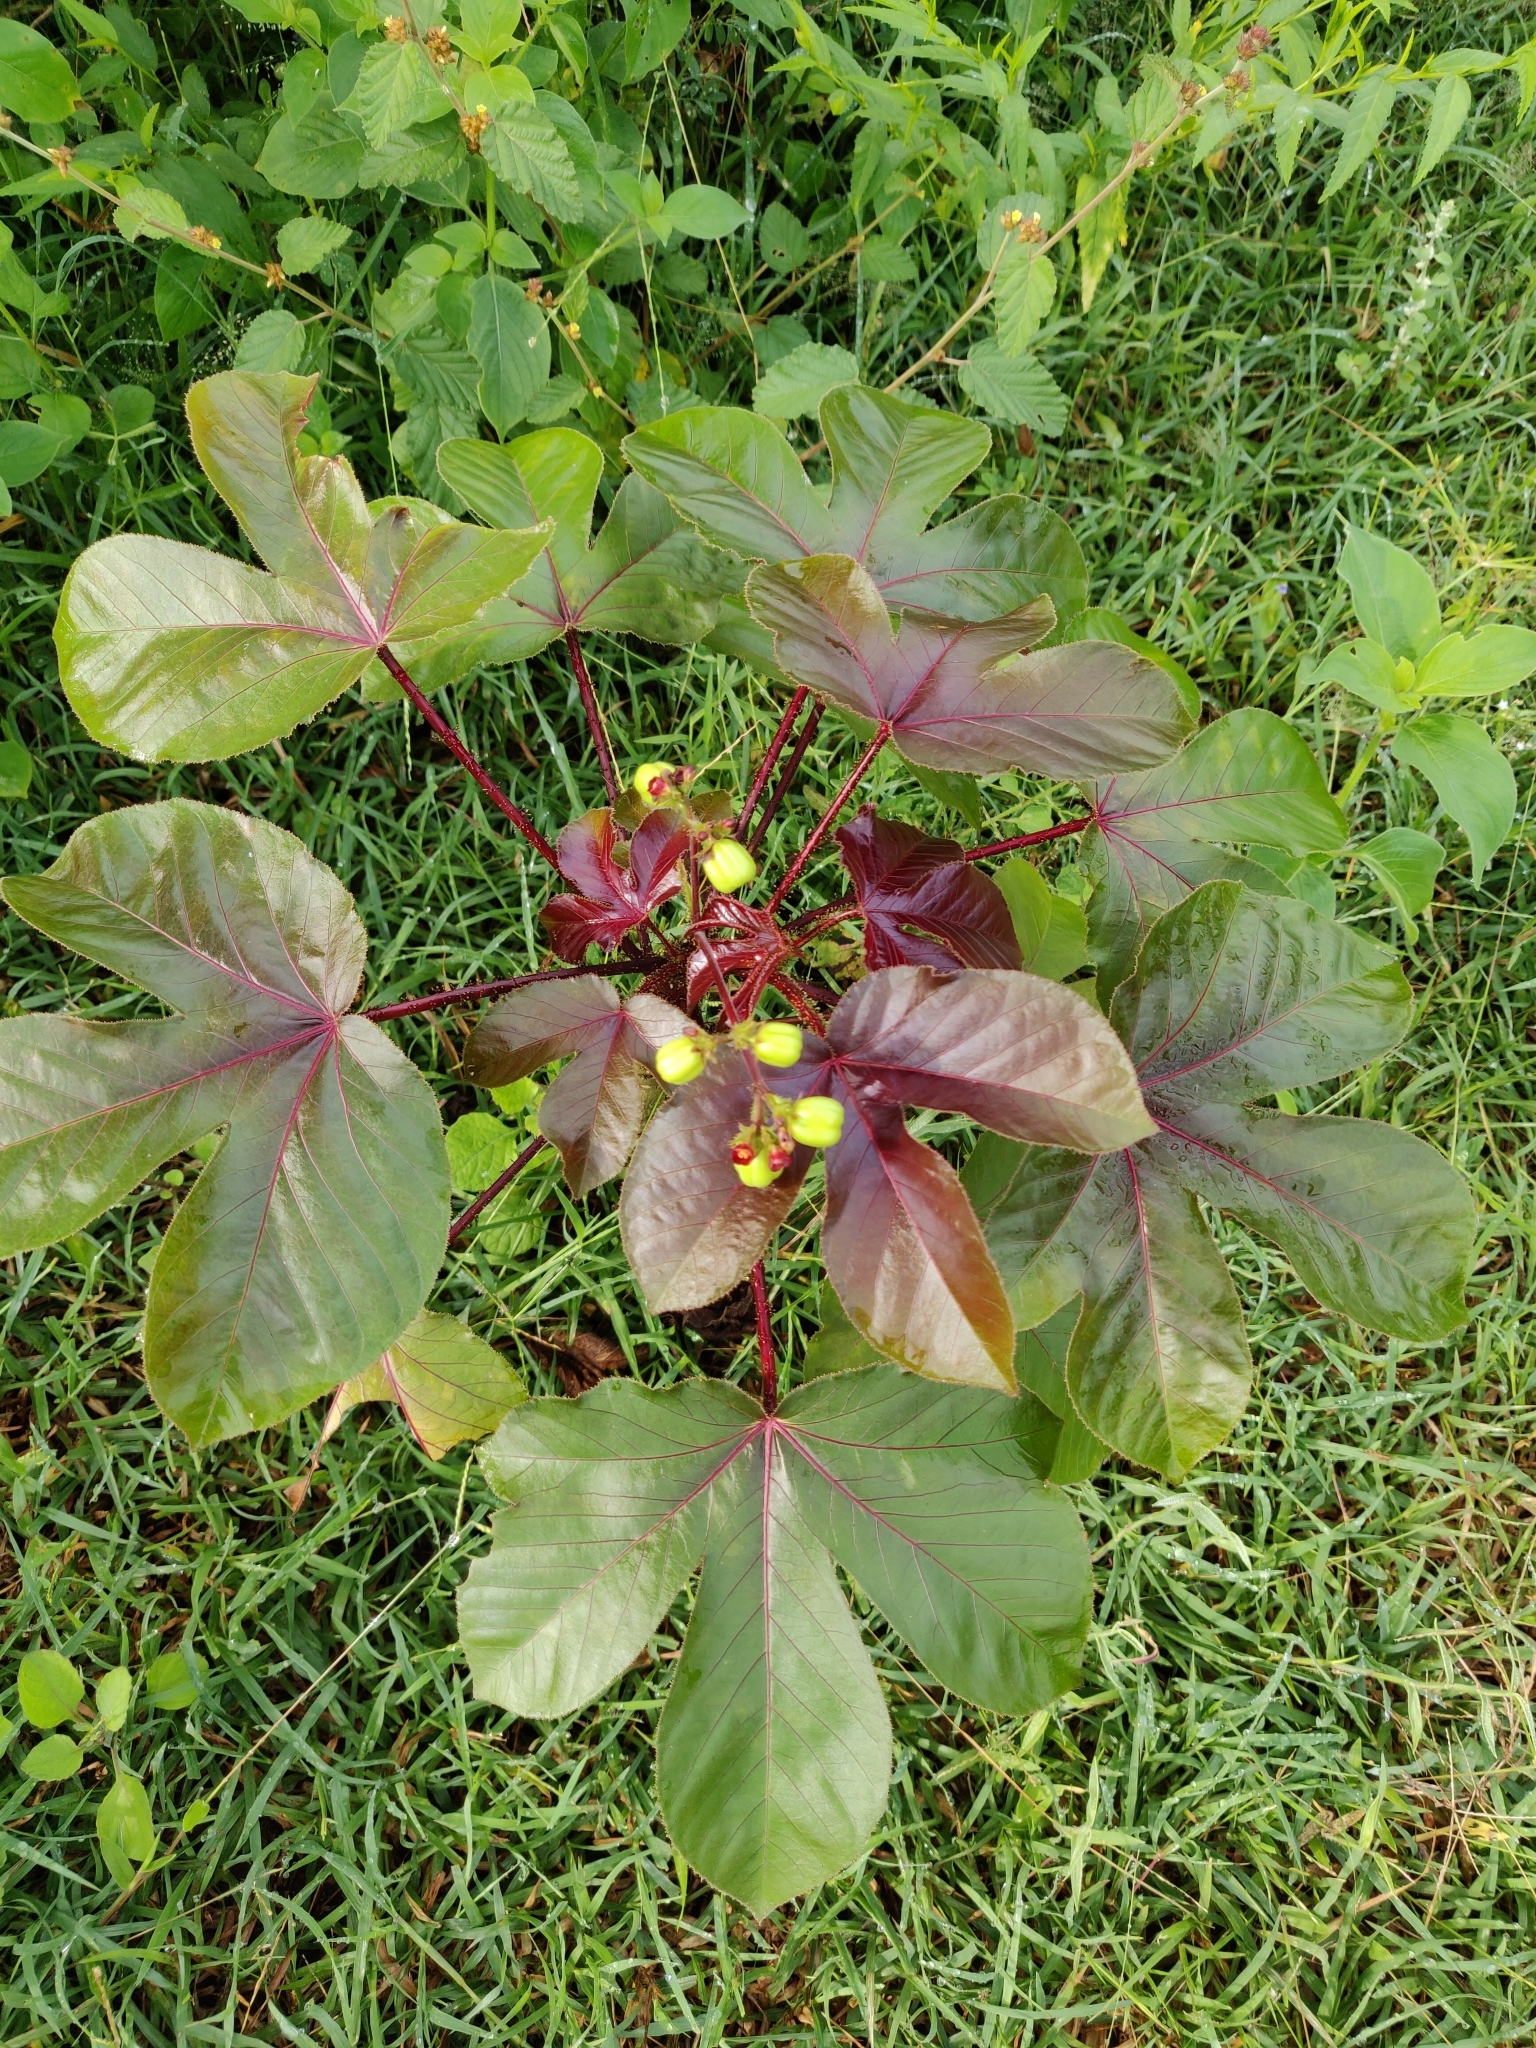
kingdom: Plantae
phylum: Tracheophyta
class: Magnoliopsida
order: Malpighiales
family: Euphorbiaceae
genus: Jatropha
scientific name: Jatropha gossypiifolia
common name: Bellyache bush
